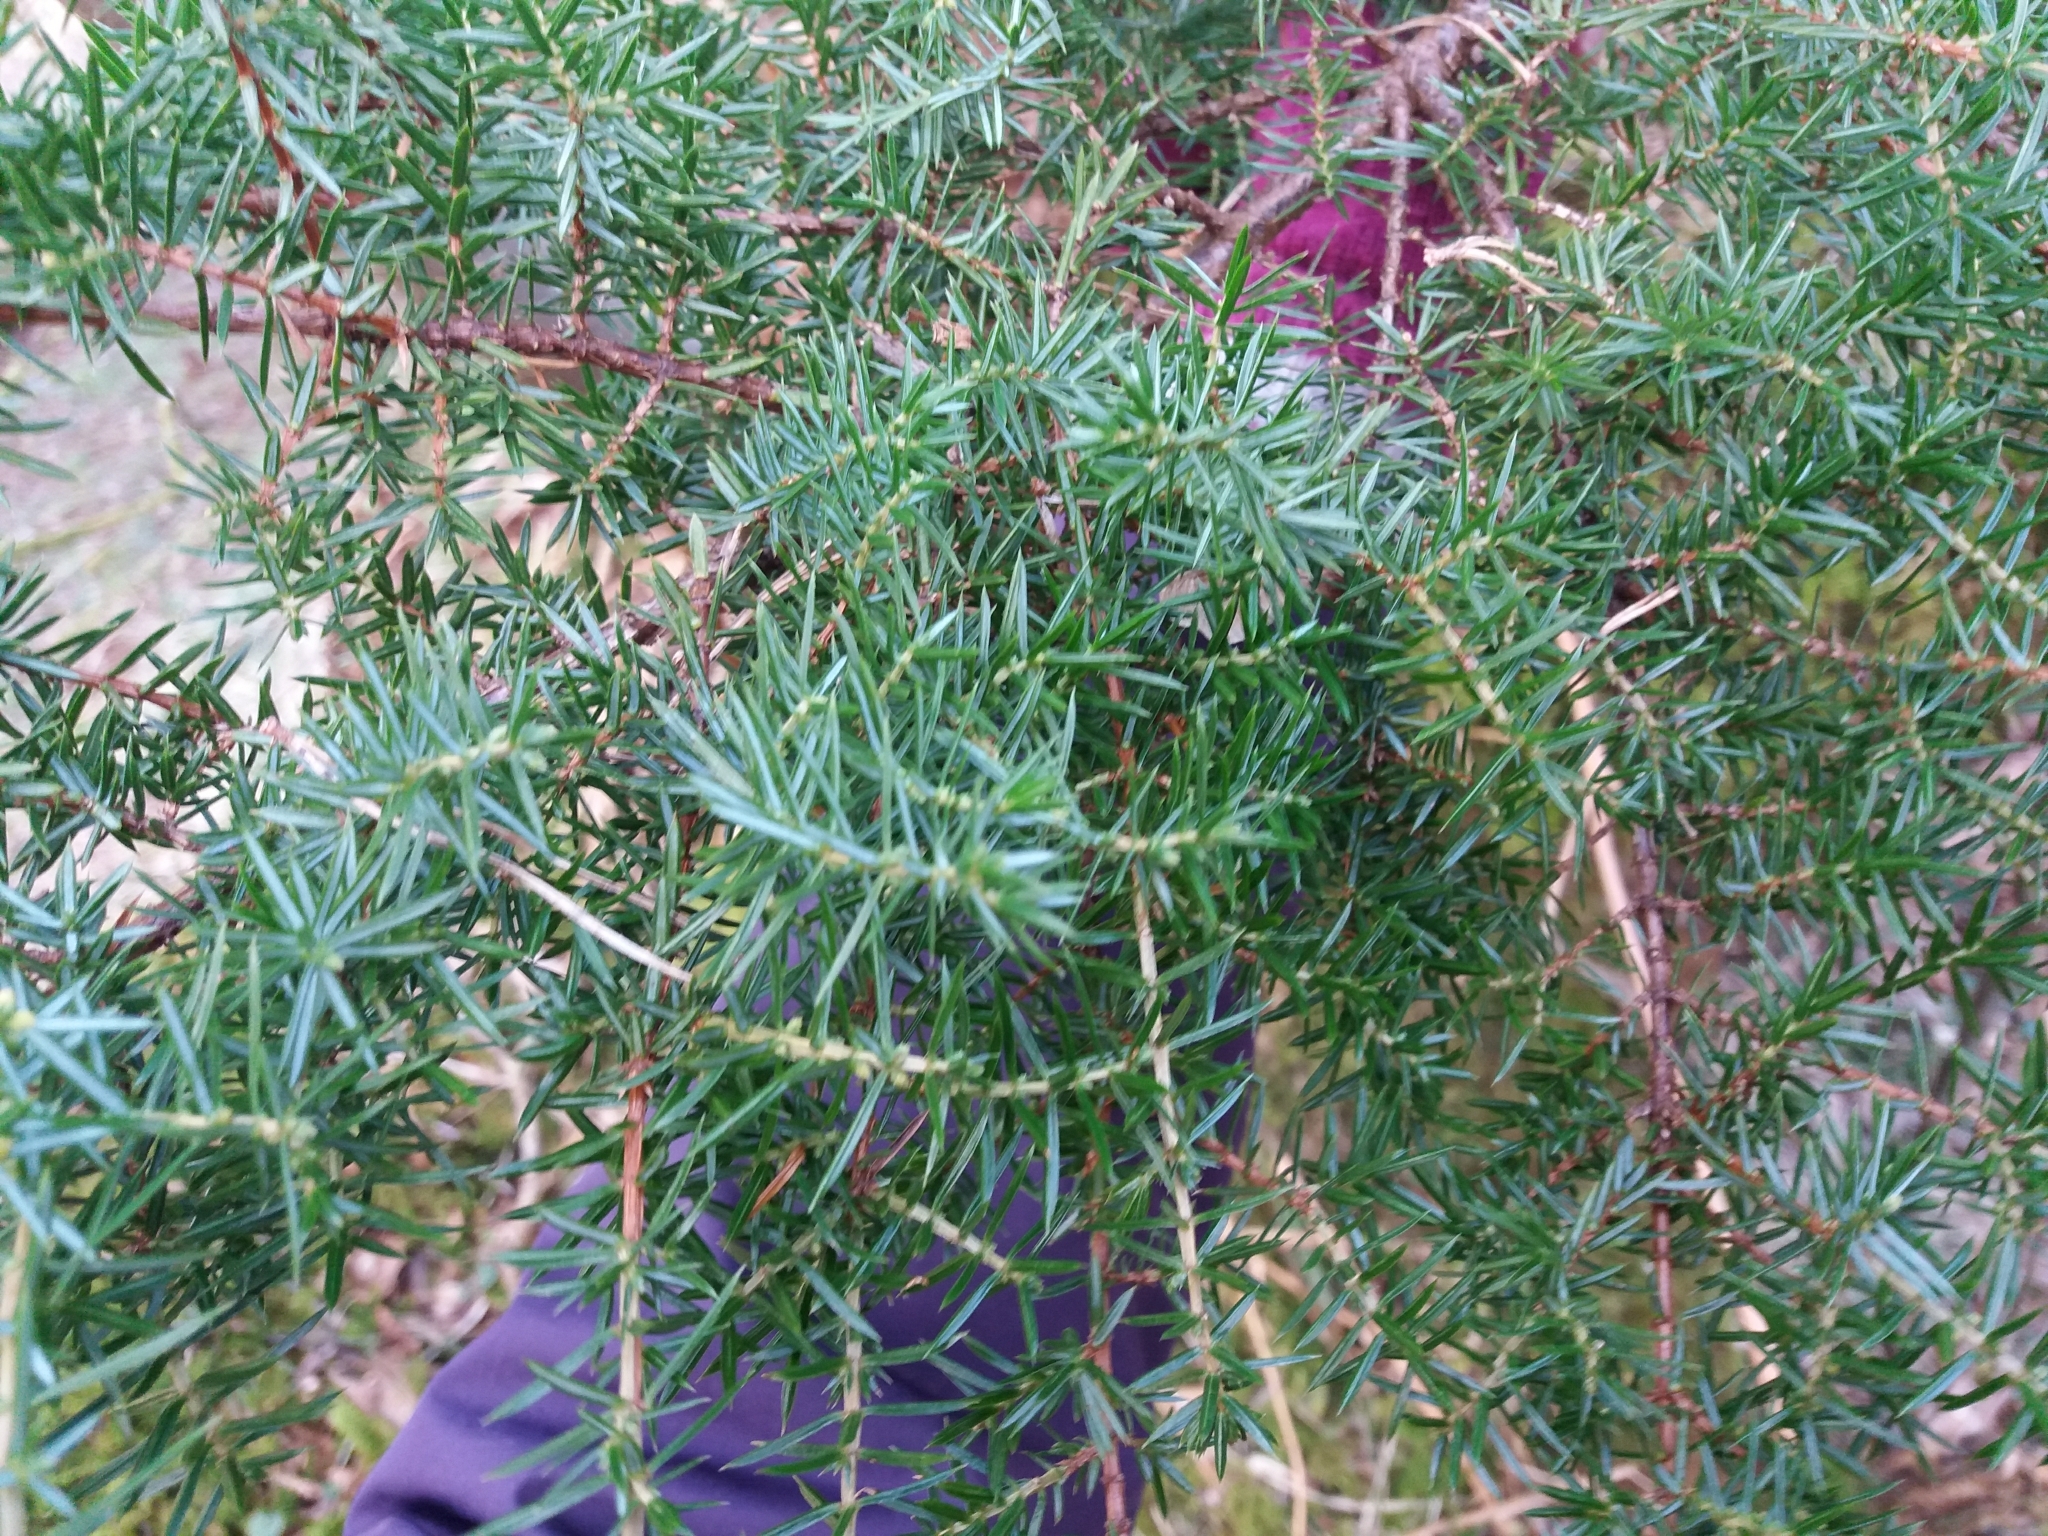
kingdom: Plantae
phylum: Tracheophyta
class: Pinopsida
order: Pinales
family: Cupressaceae
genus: Juniperus
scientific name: Juniperus communis
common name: Common juniper
